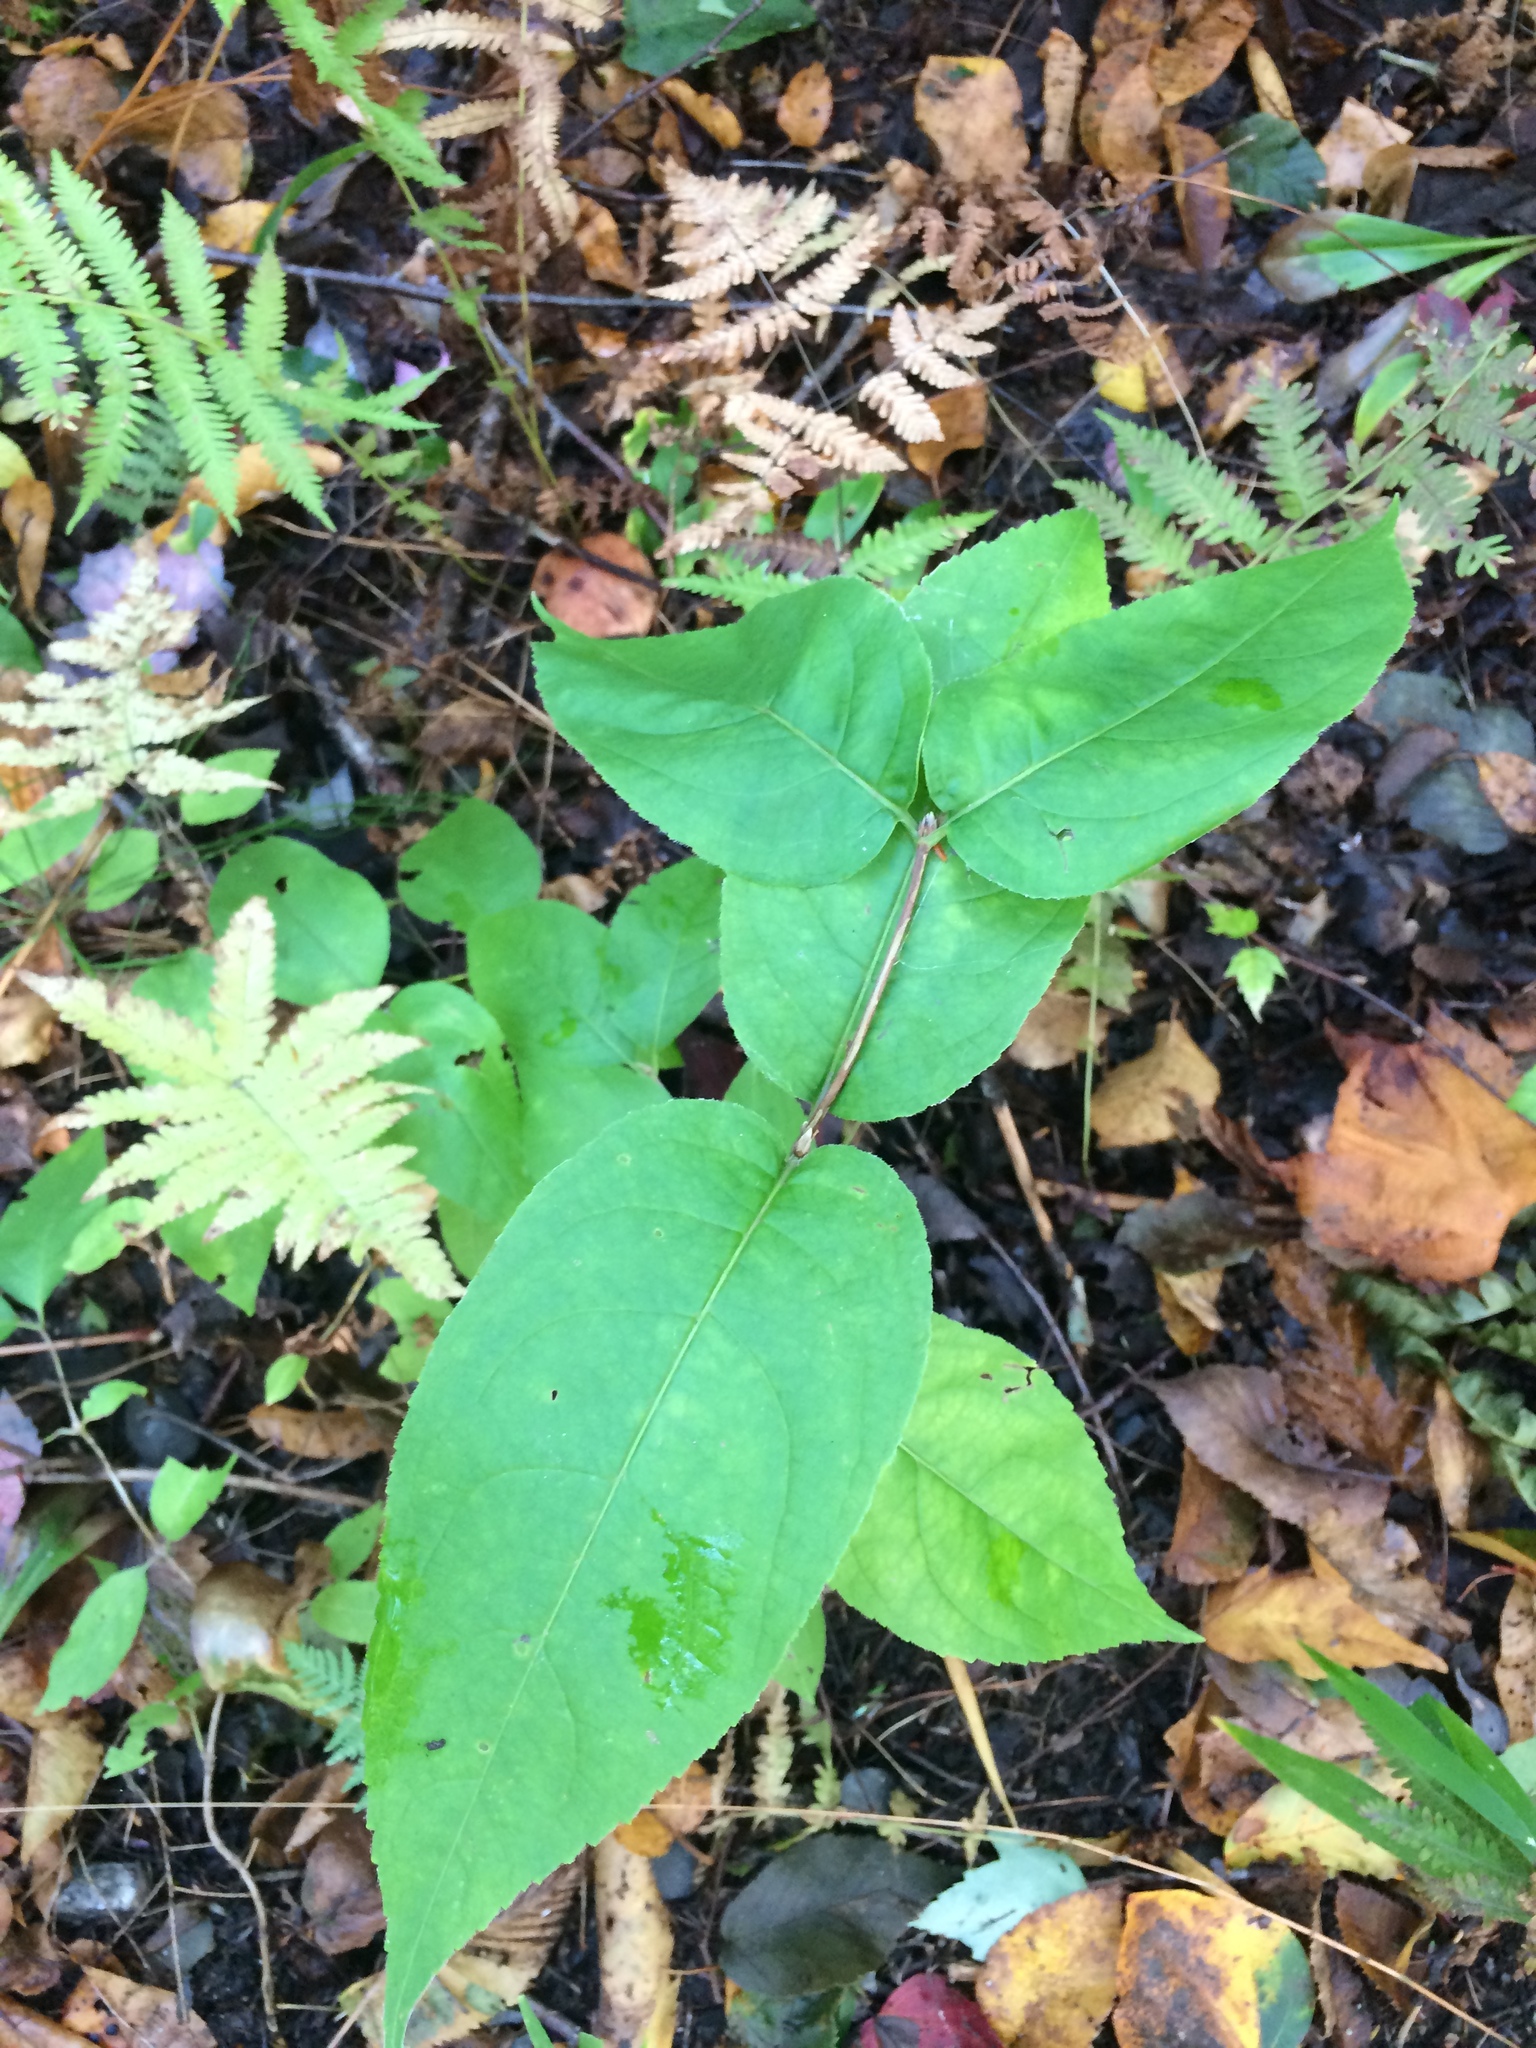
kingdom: Plantae
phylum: Tracheophyta
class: Magnoliopsida
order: Dipsacales
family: Caprifoliaceae
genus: Diervilla
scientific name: Diervilla lonicera
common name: Bush-honeysuckle
